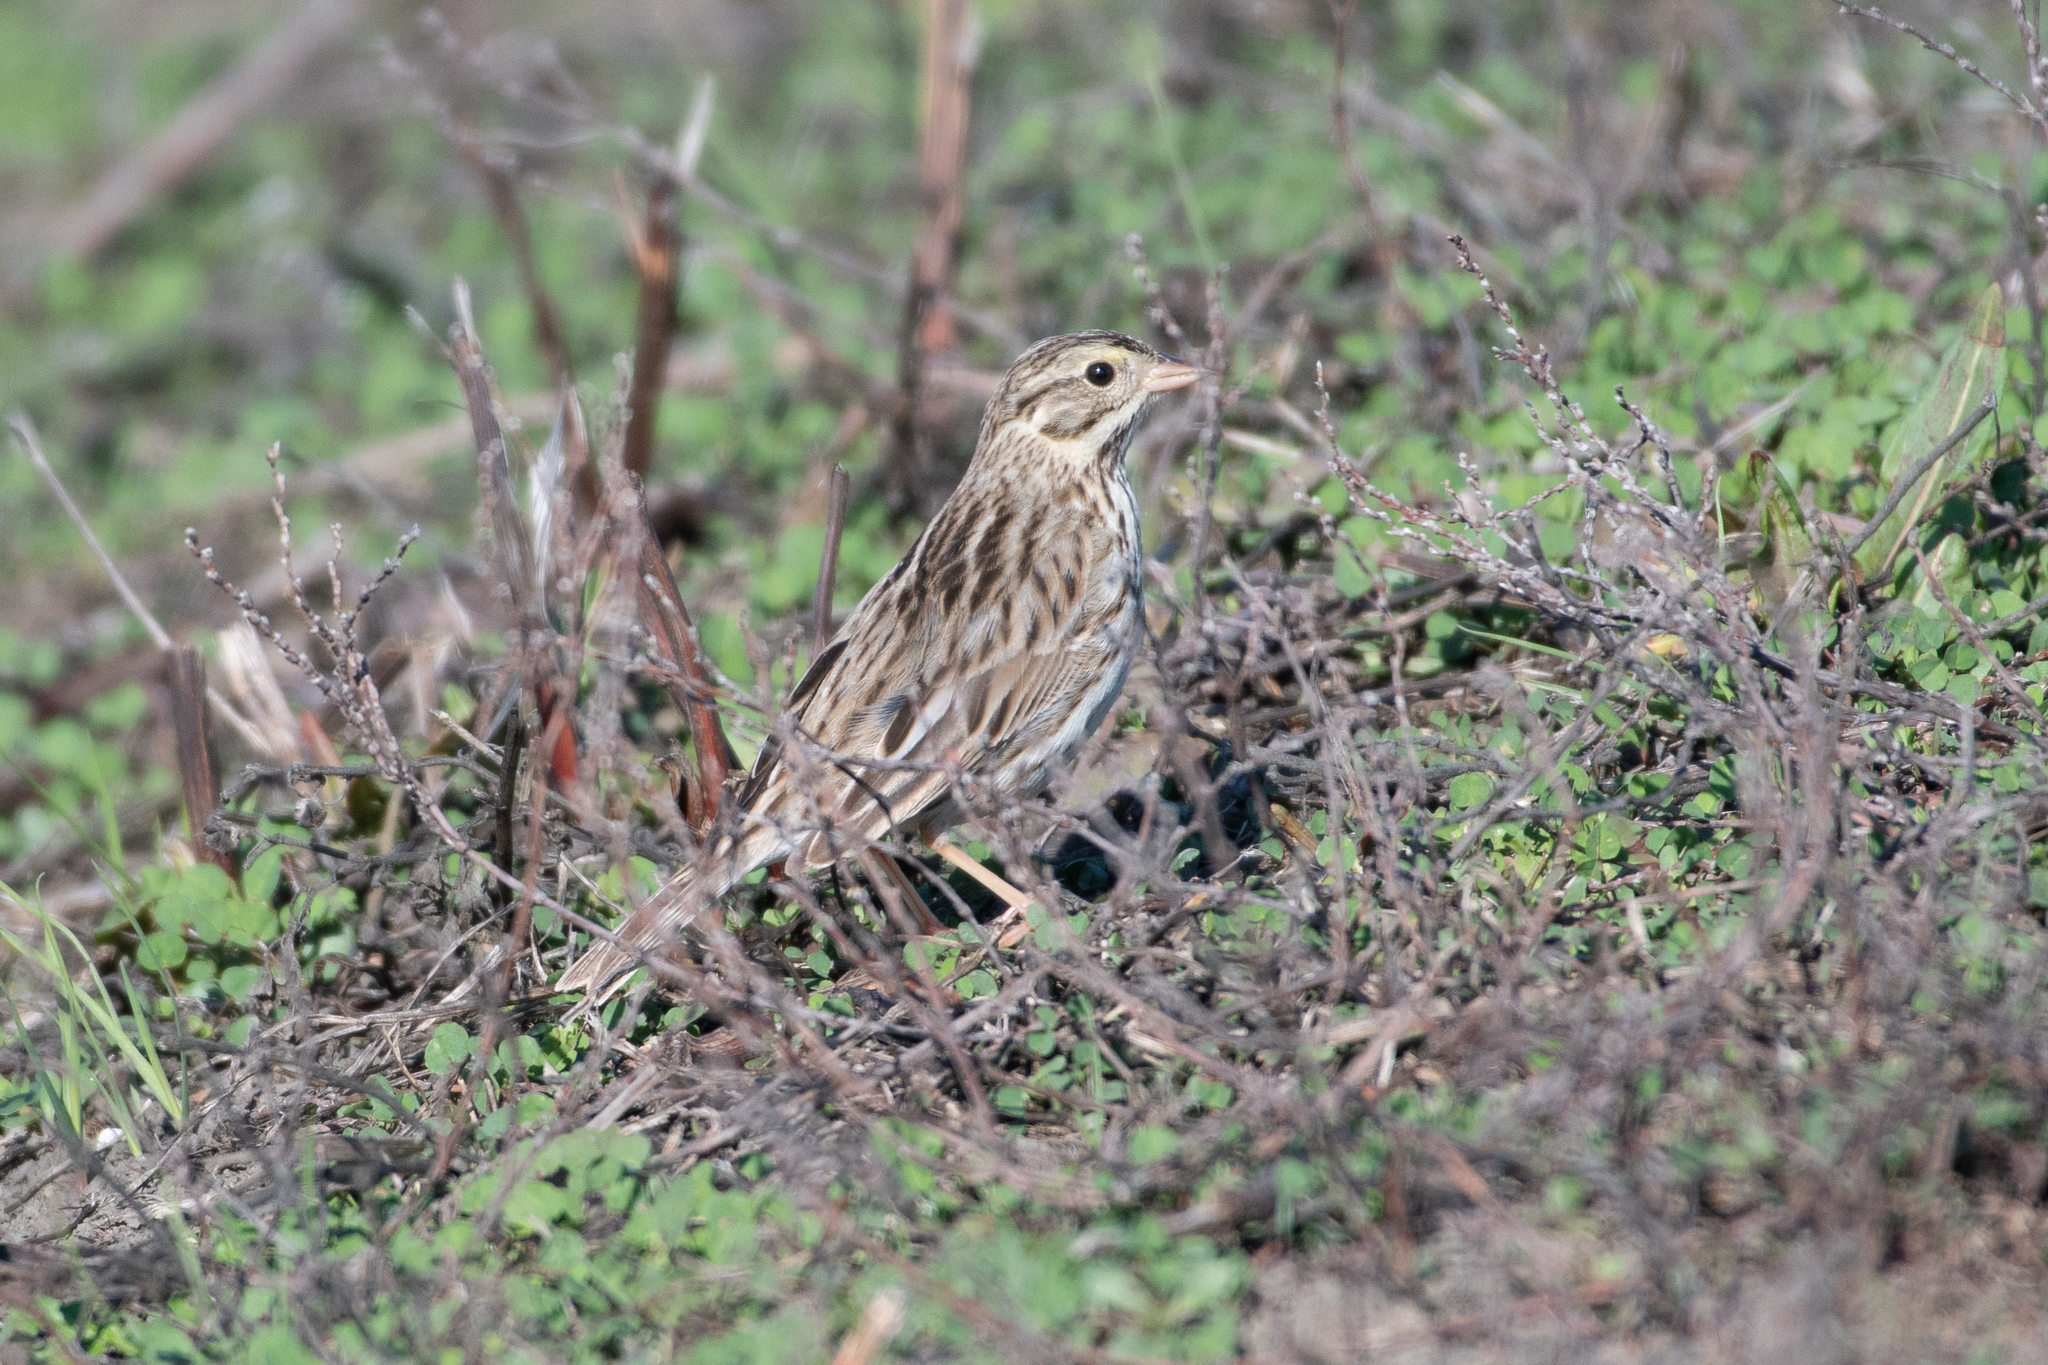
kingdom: Animalia
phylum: Chordata
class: Aves
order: Passeriformes
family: Passerellidae
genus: Passerculus
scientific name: Passerculus sandwichensis
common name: Savannah sparrow
